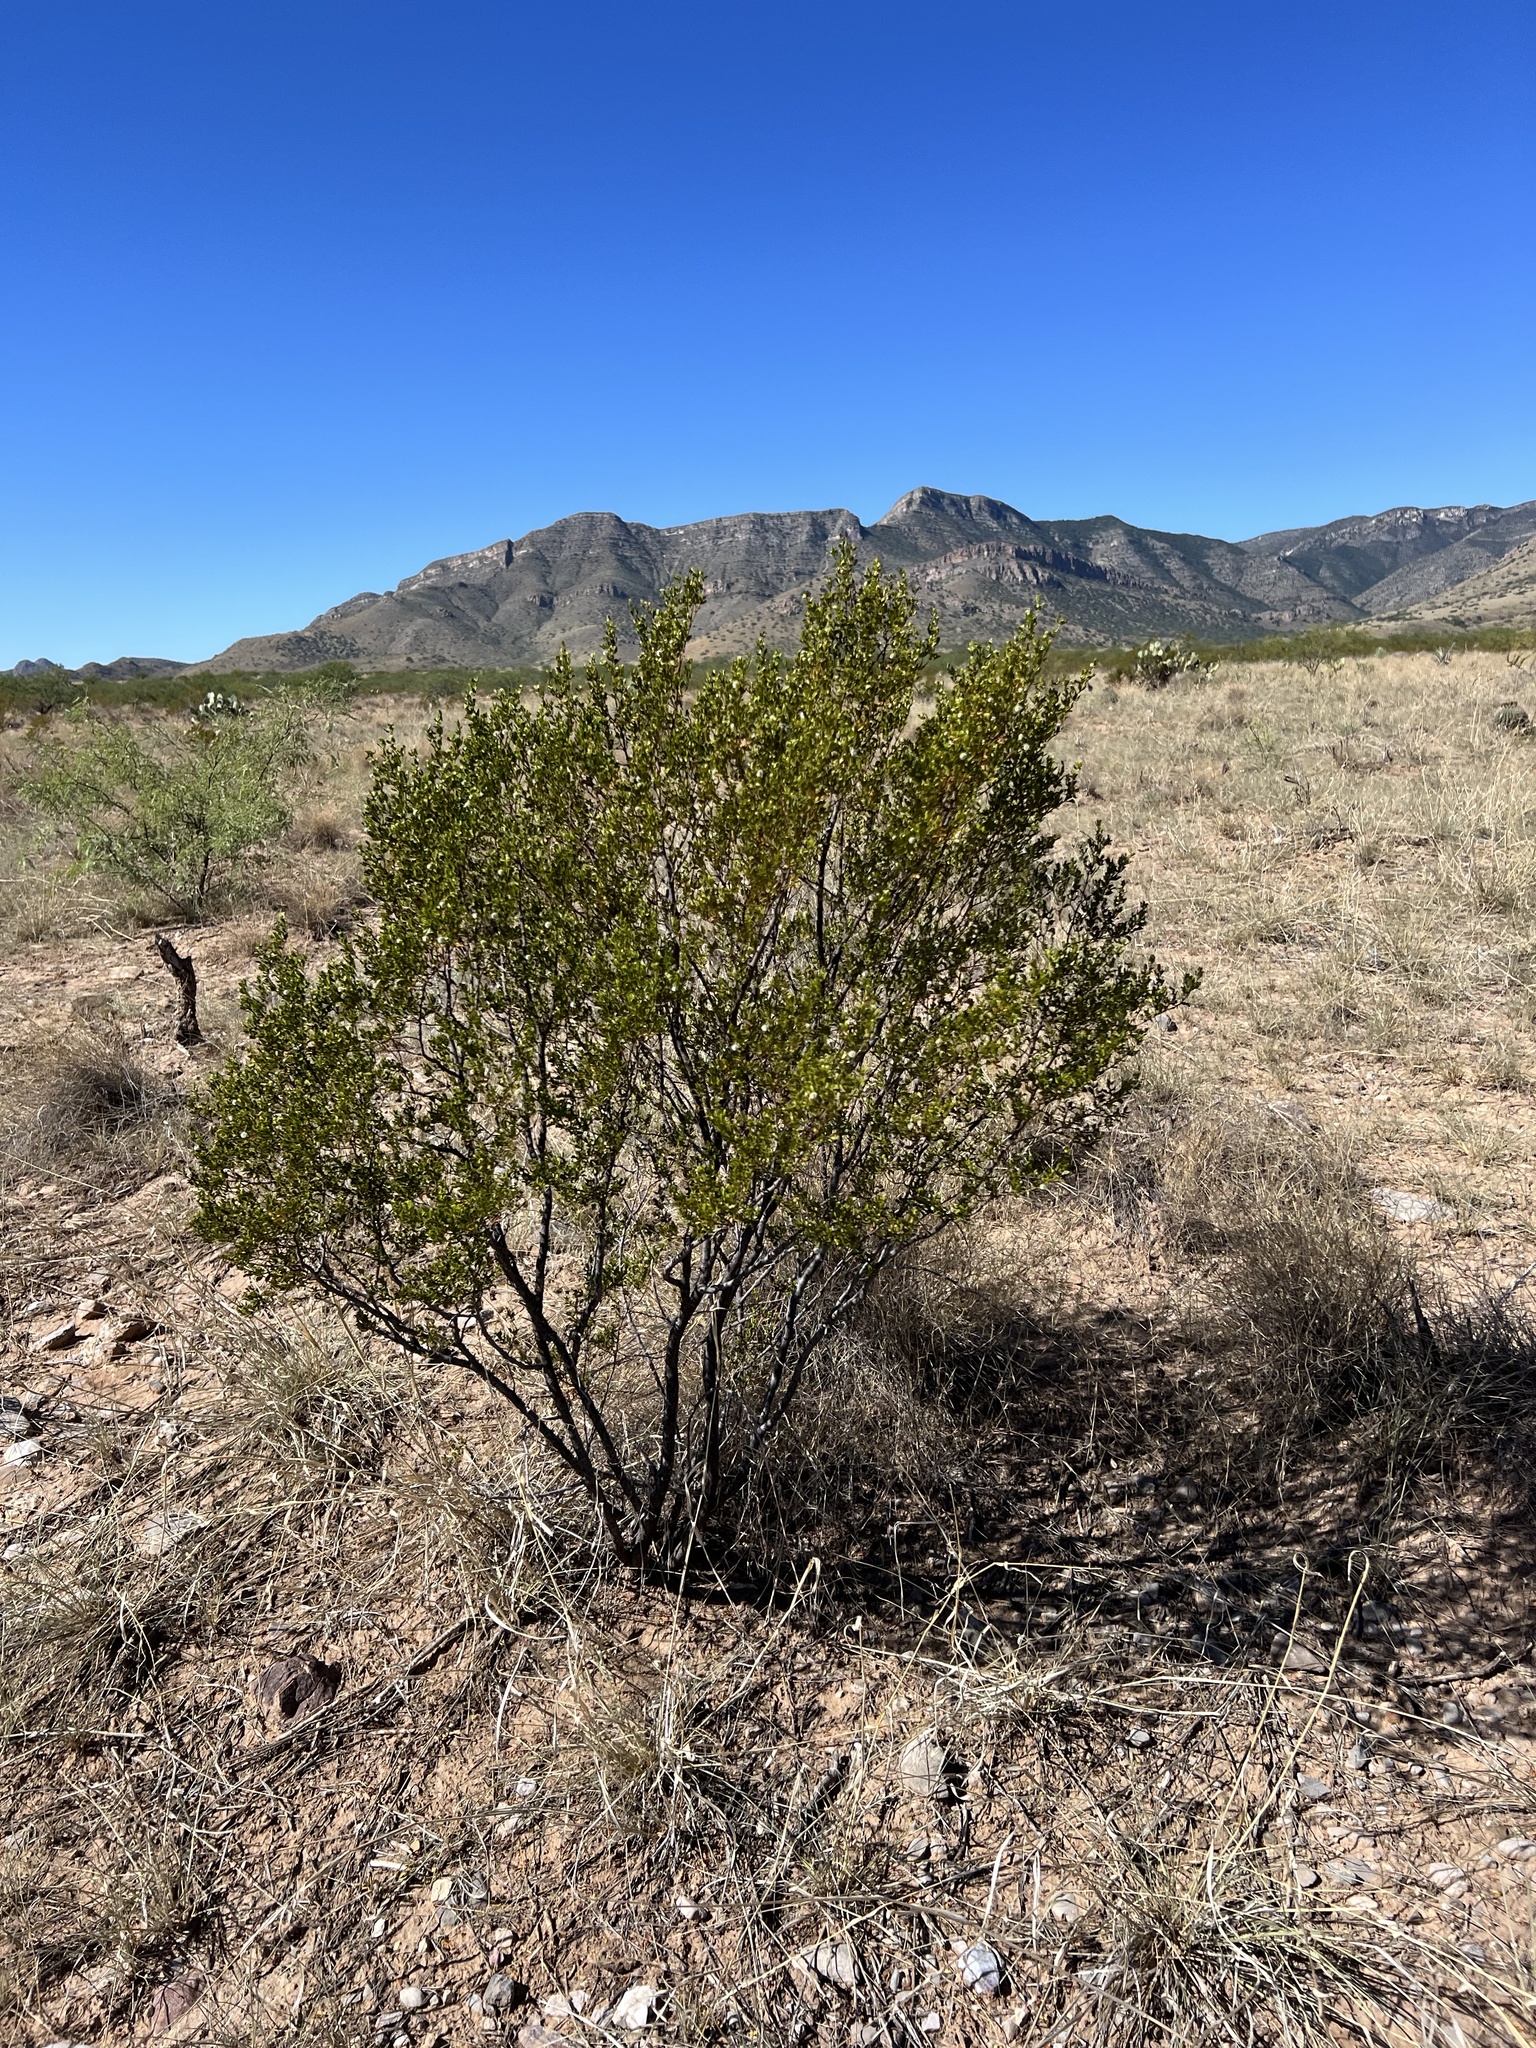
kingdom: Plantae
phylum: Tracheophyta
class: Magnoliopsida
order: Zygophyllales
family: Zygophyllaceae
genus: Larrea
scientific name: Larrea tridentata
